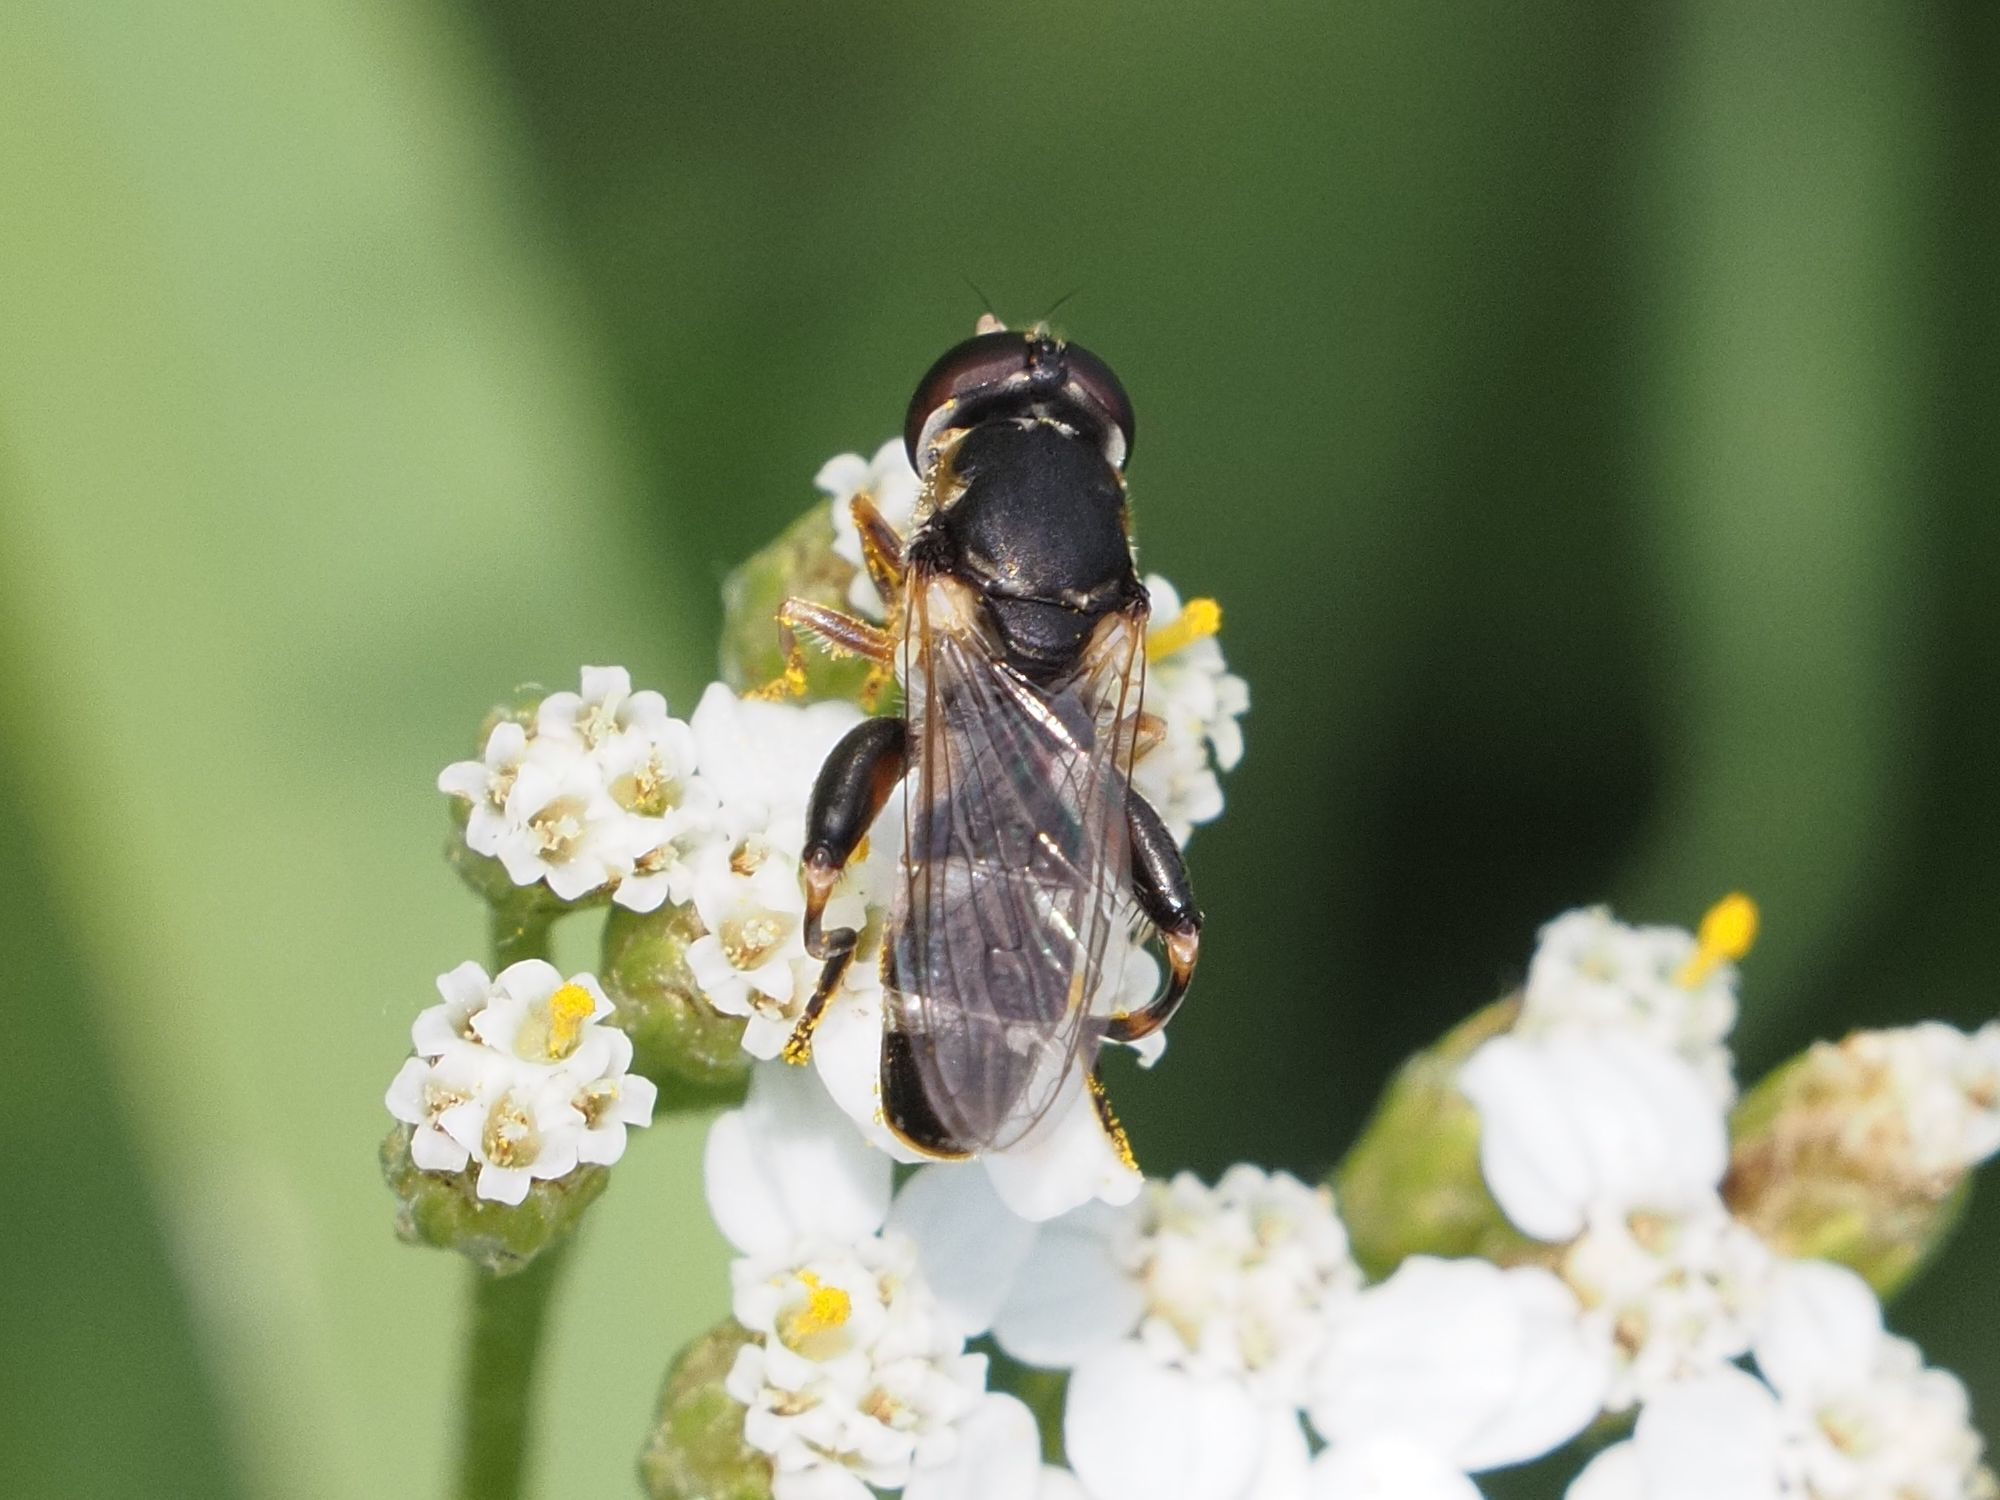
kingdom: Animalia
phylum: Arthropoda
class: Insecta
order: Diptera
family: Syrphidae
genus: Syritta
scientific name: Syritta pipiens
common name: Hover fly
